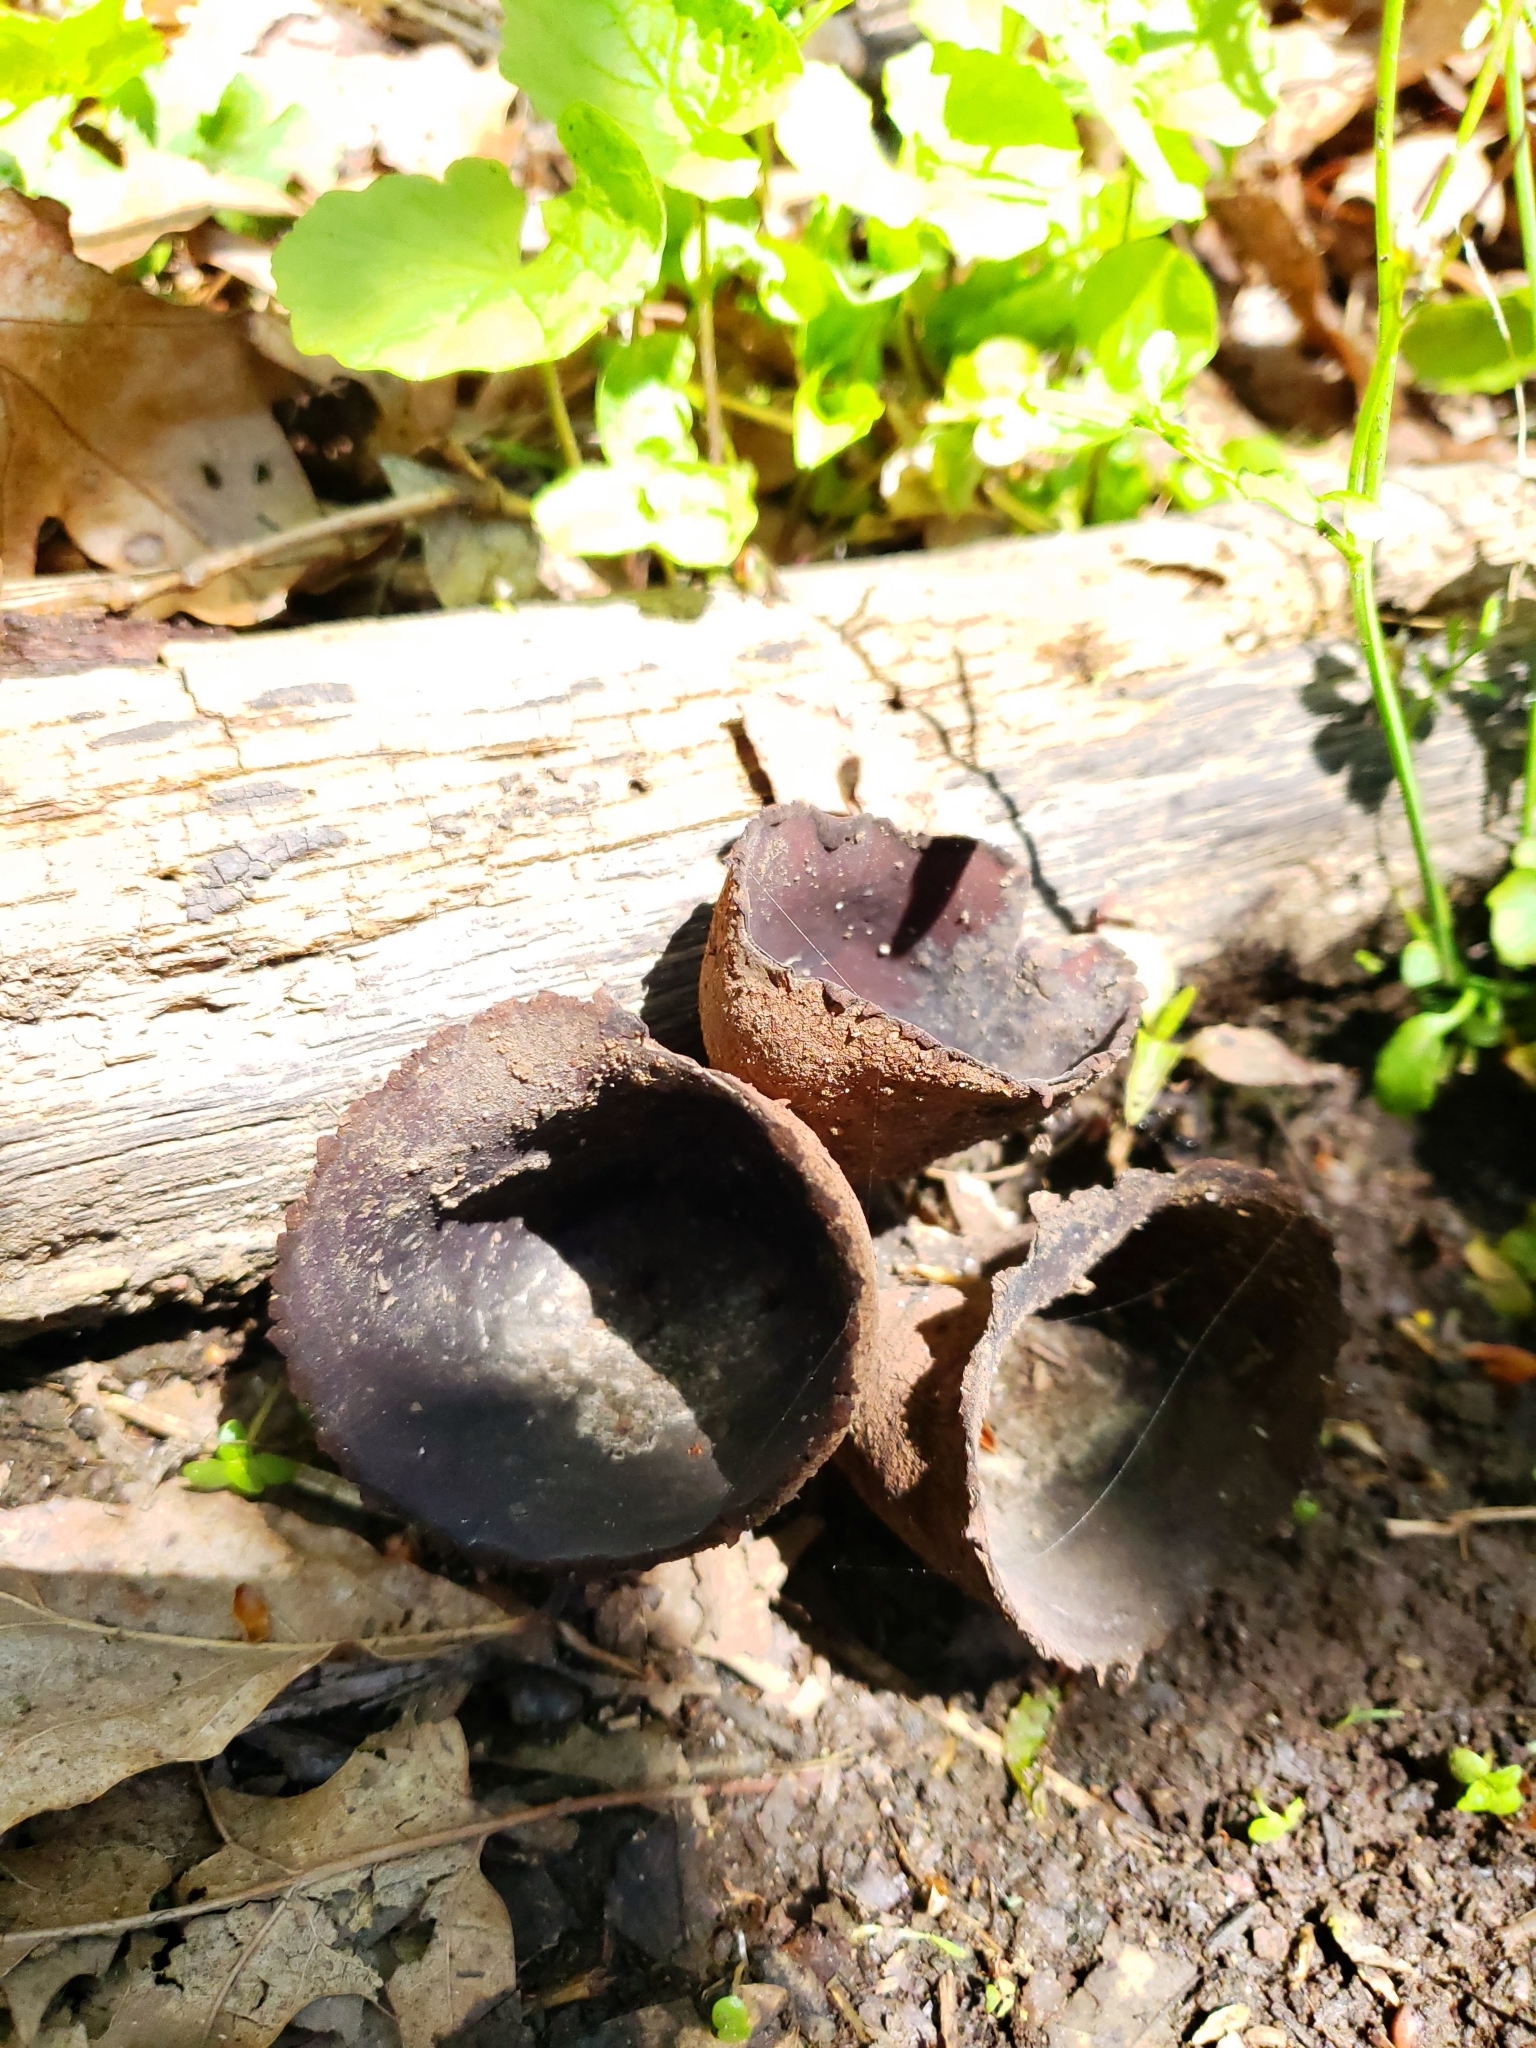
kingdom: Fungi
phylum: Ascomycota
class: Pezizomycetes
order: Pezizales
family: Sarcosomataceae
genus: Urnula
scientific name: Urnula craterium
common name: Devil's urn
